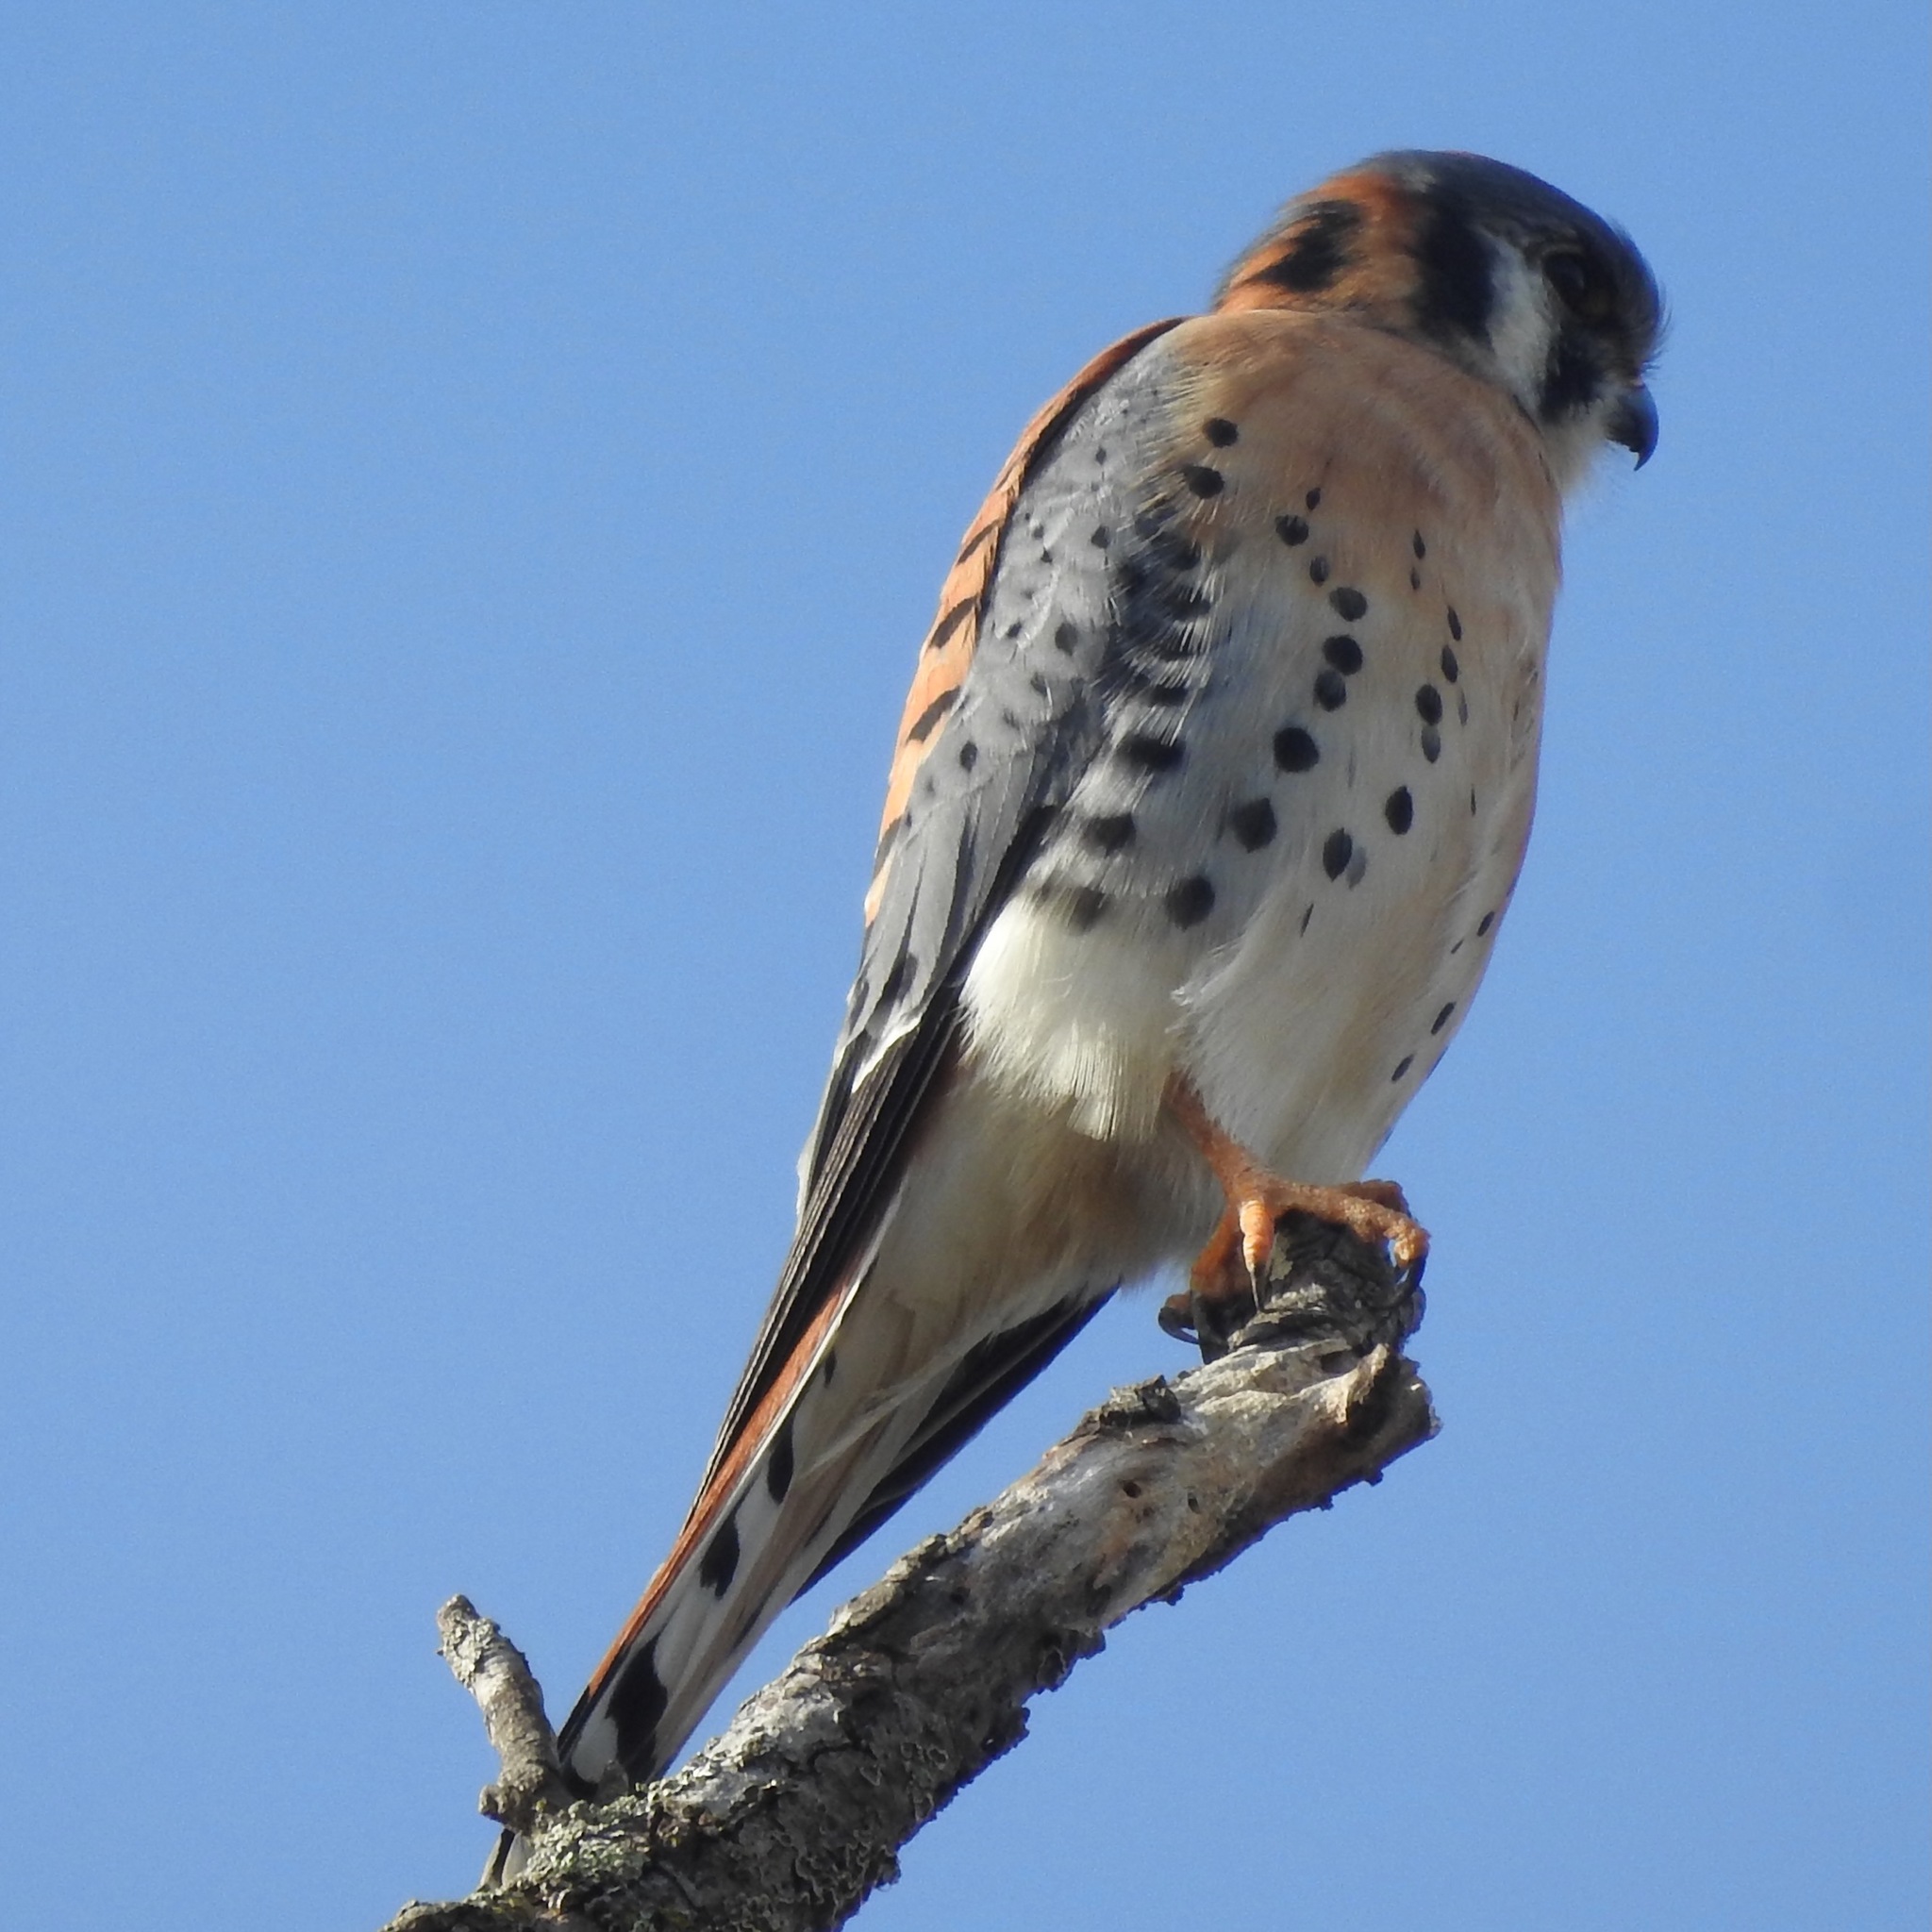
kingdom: Animalia
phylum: Chordata
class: Aves
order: Falconiformes
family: Falconidae
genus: Falco
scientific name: Falco sparverius
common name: American kestrel
